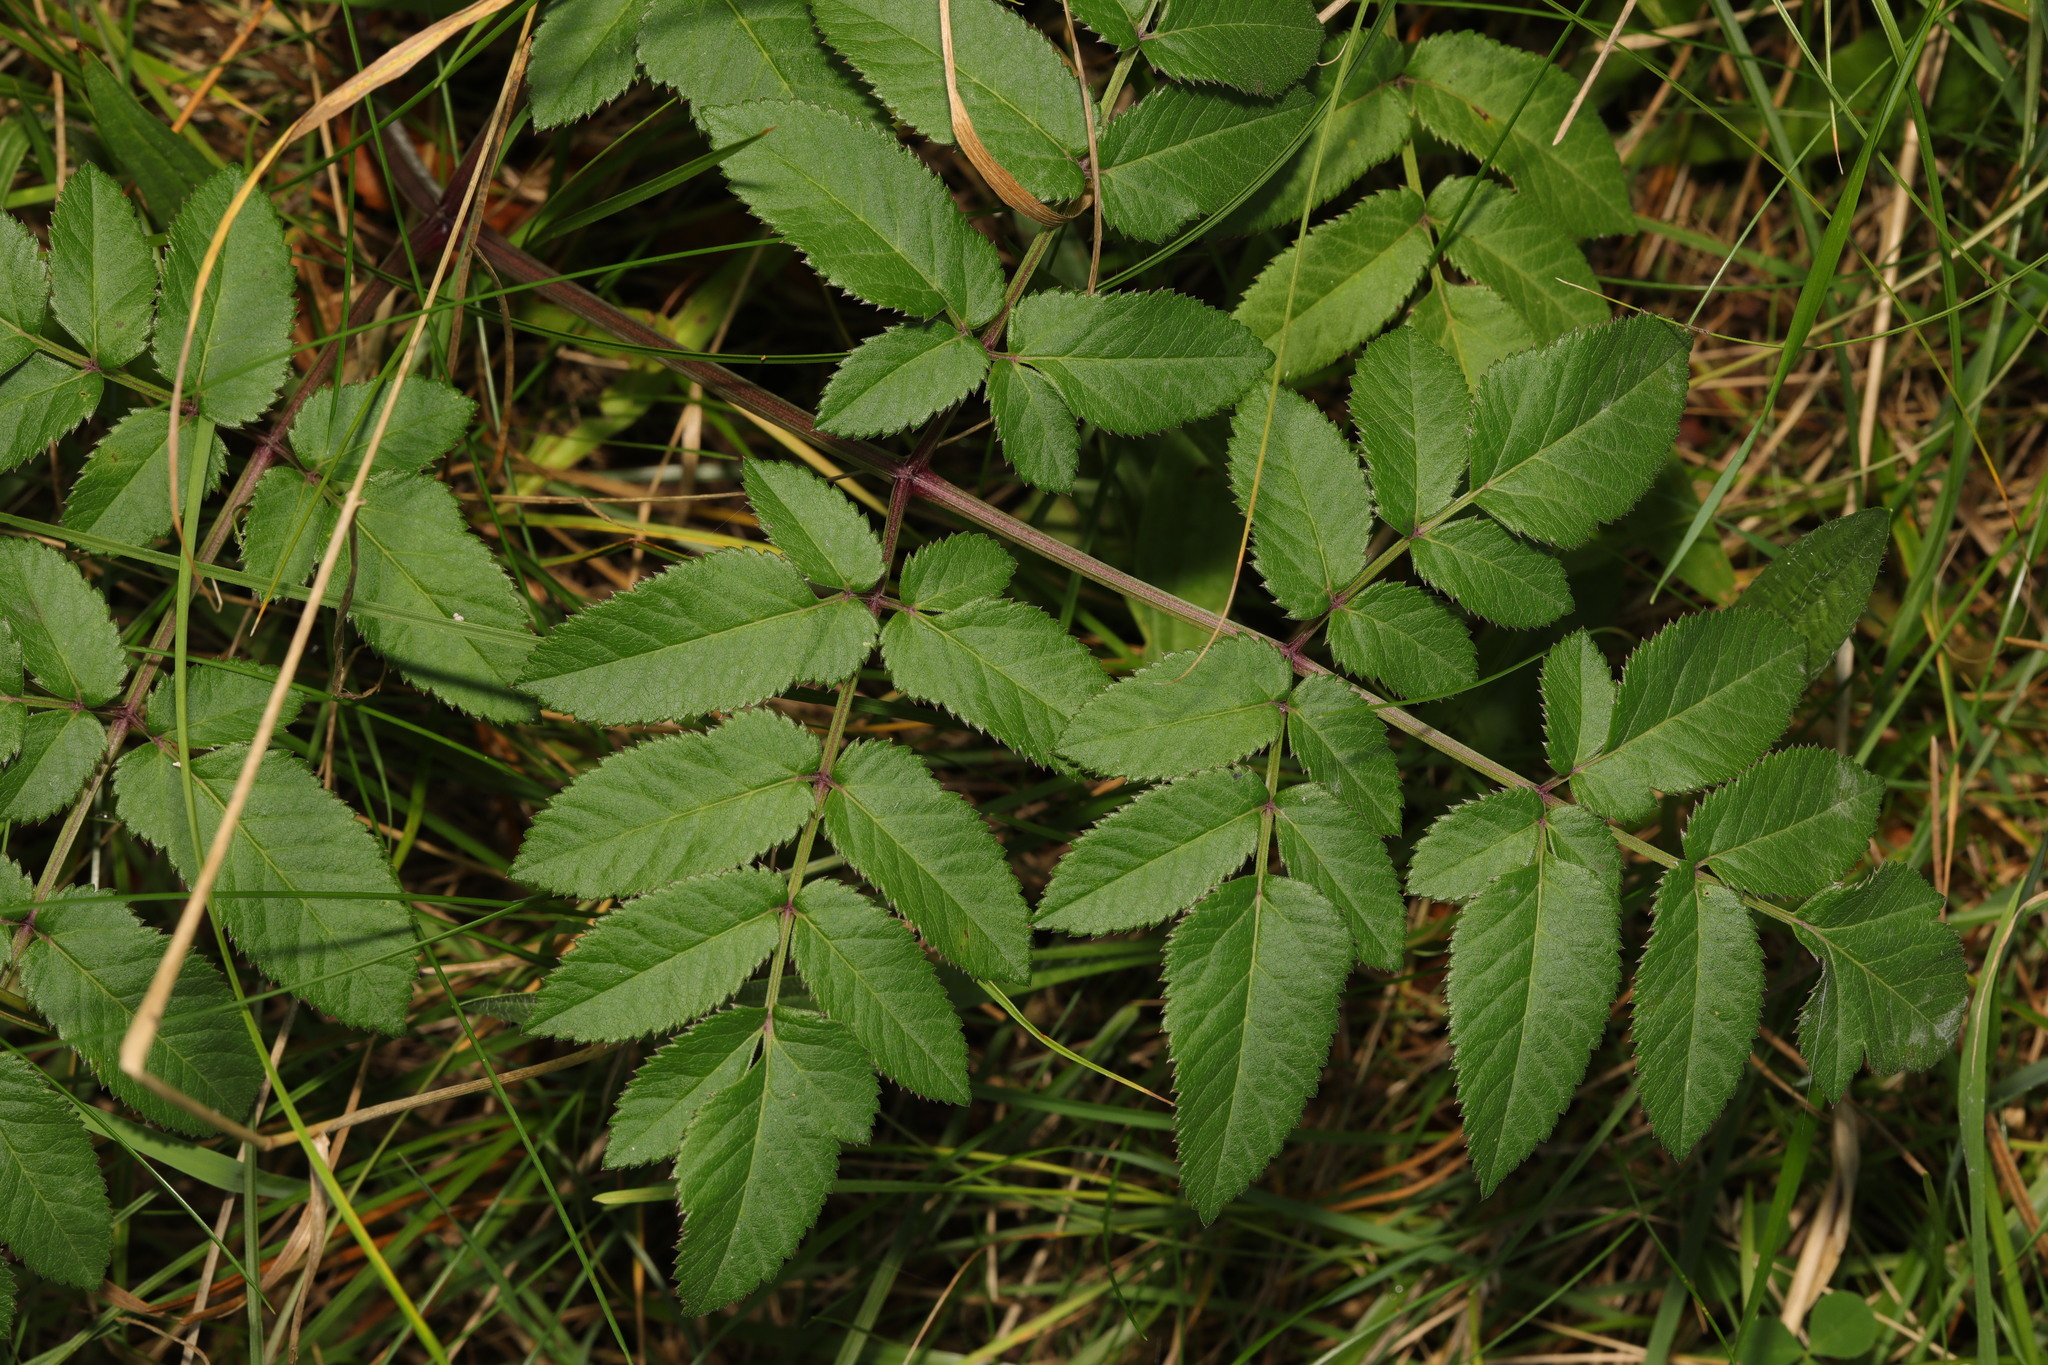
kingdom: Plantae
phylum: Tracheophyta
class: Magnoliopsida
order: Apiales
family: Apiaceae
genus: Angelica
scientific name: Angelica sylvestris
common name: Wild angelica
